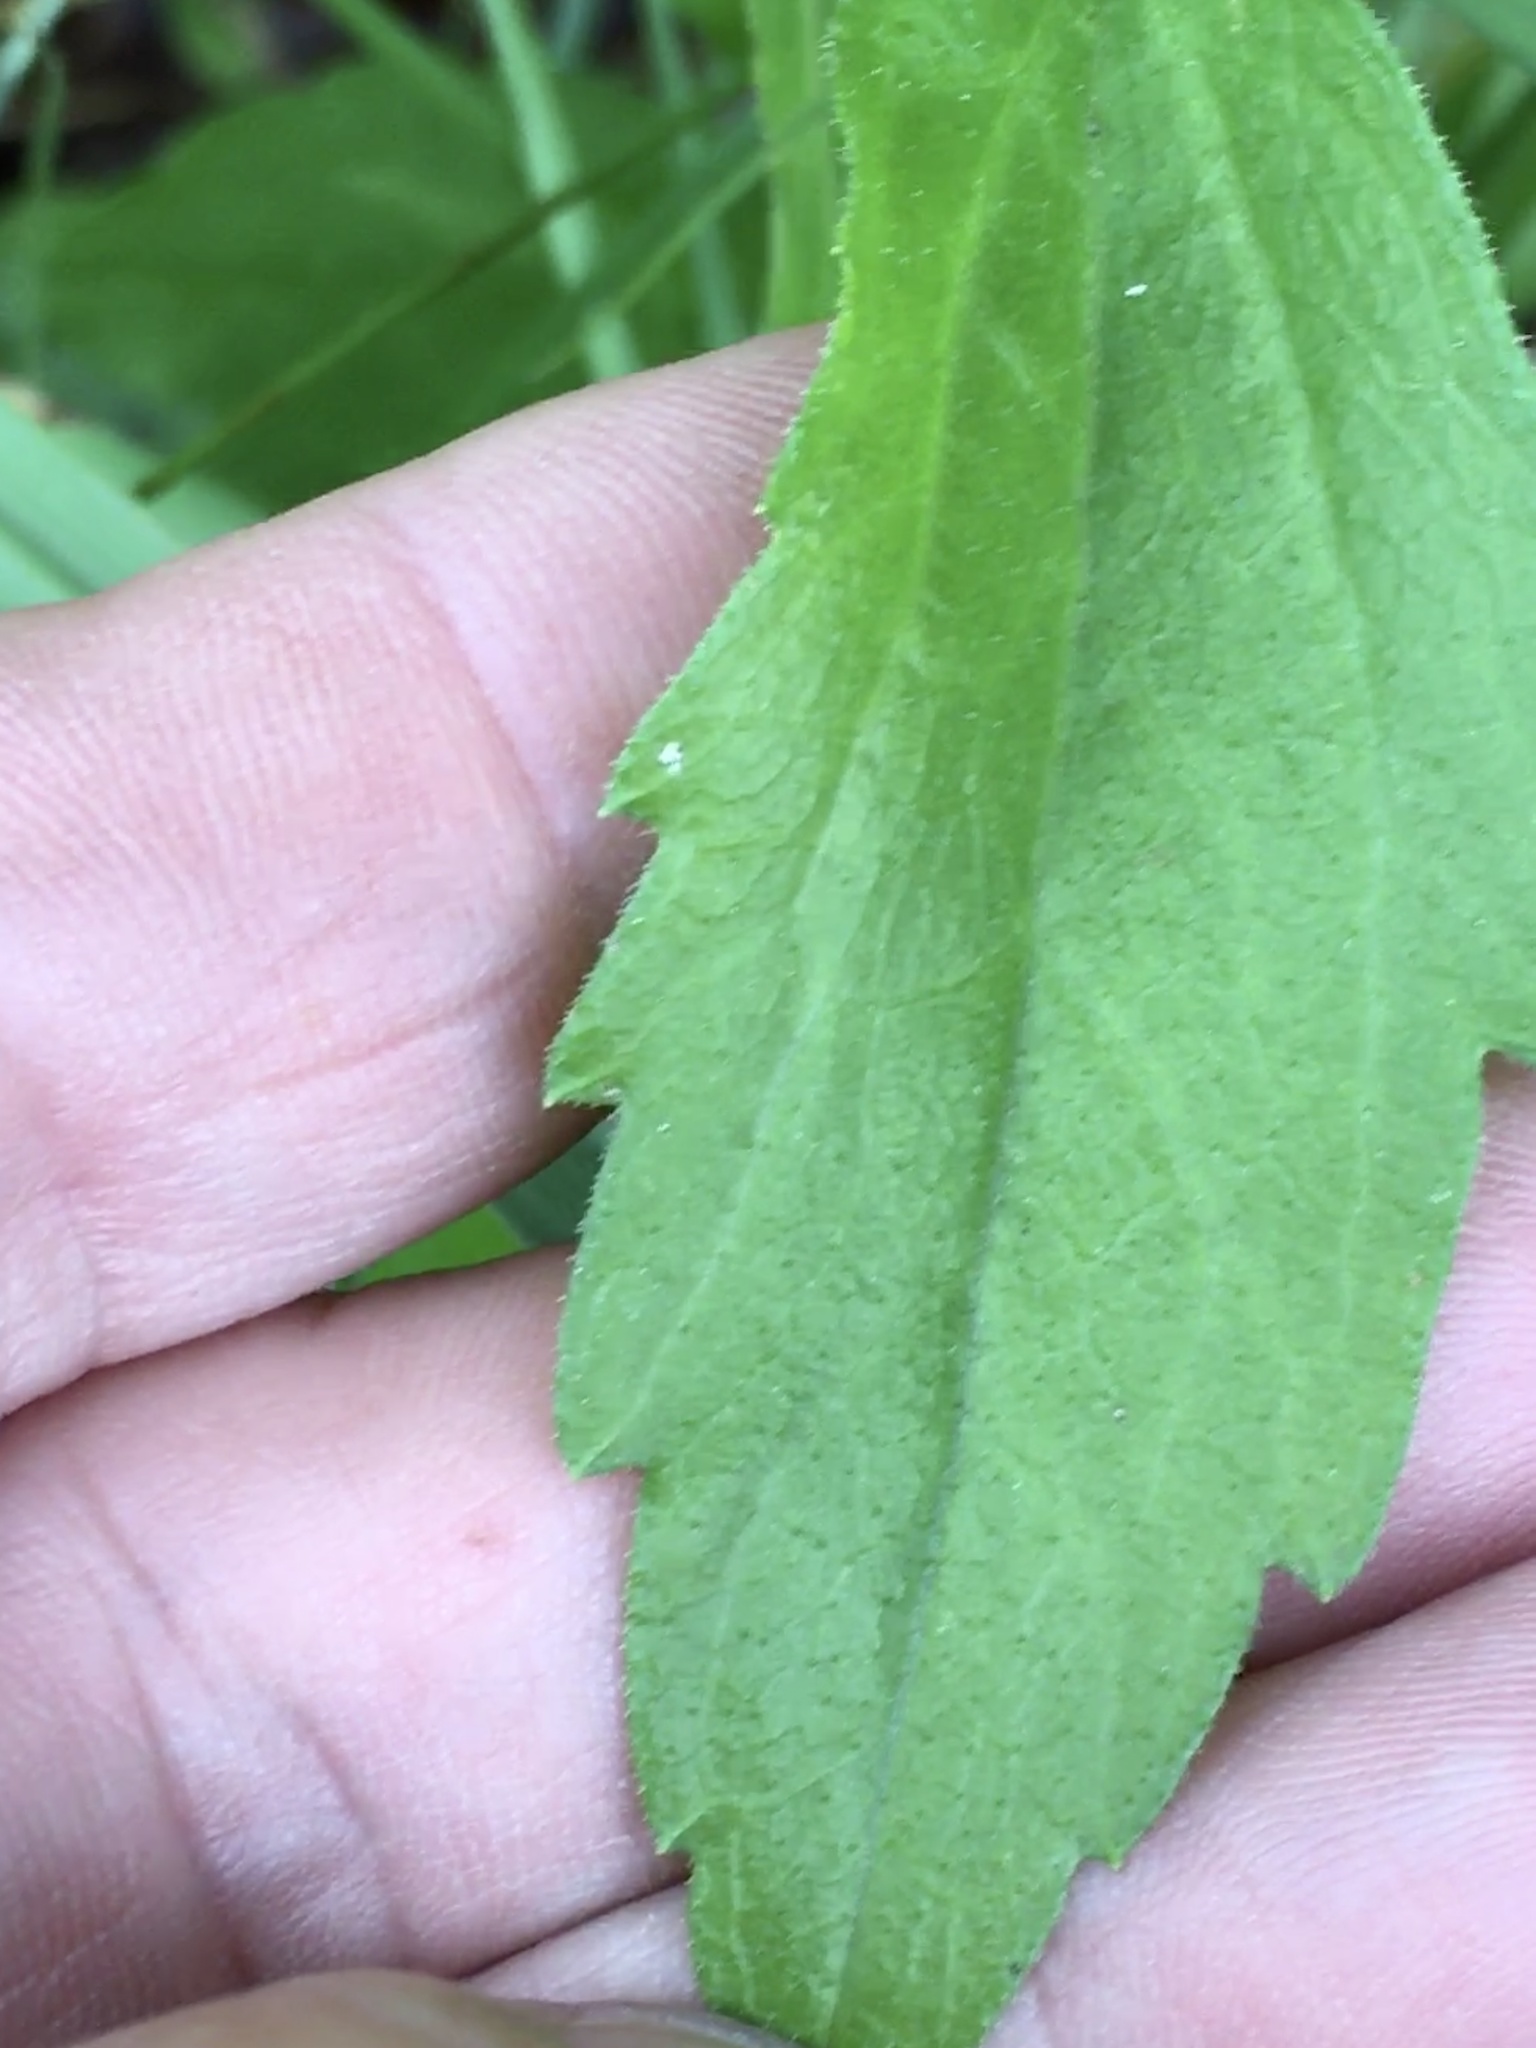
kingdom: Plantae
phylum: Tracheophyta
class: Magnoliopsida
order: Asterales
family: Asteraceae
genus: Erigeron
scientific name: Erigeron annuus
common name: Tall fleabane
